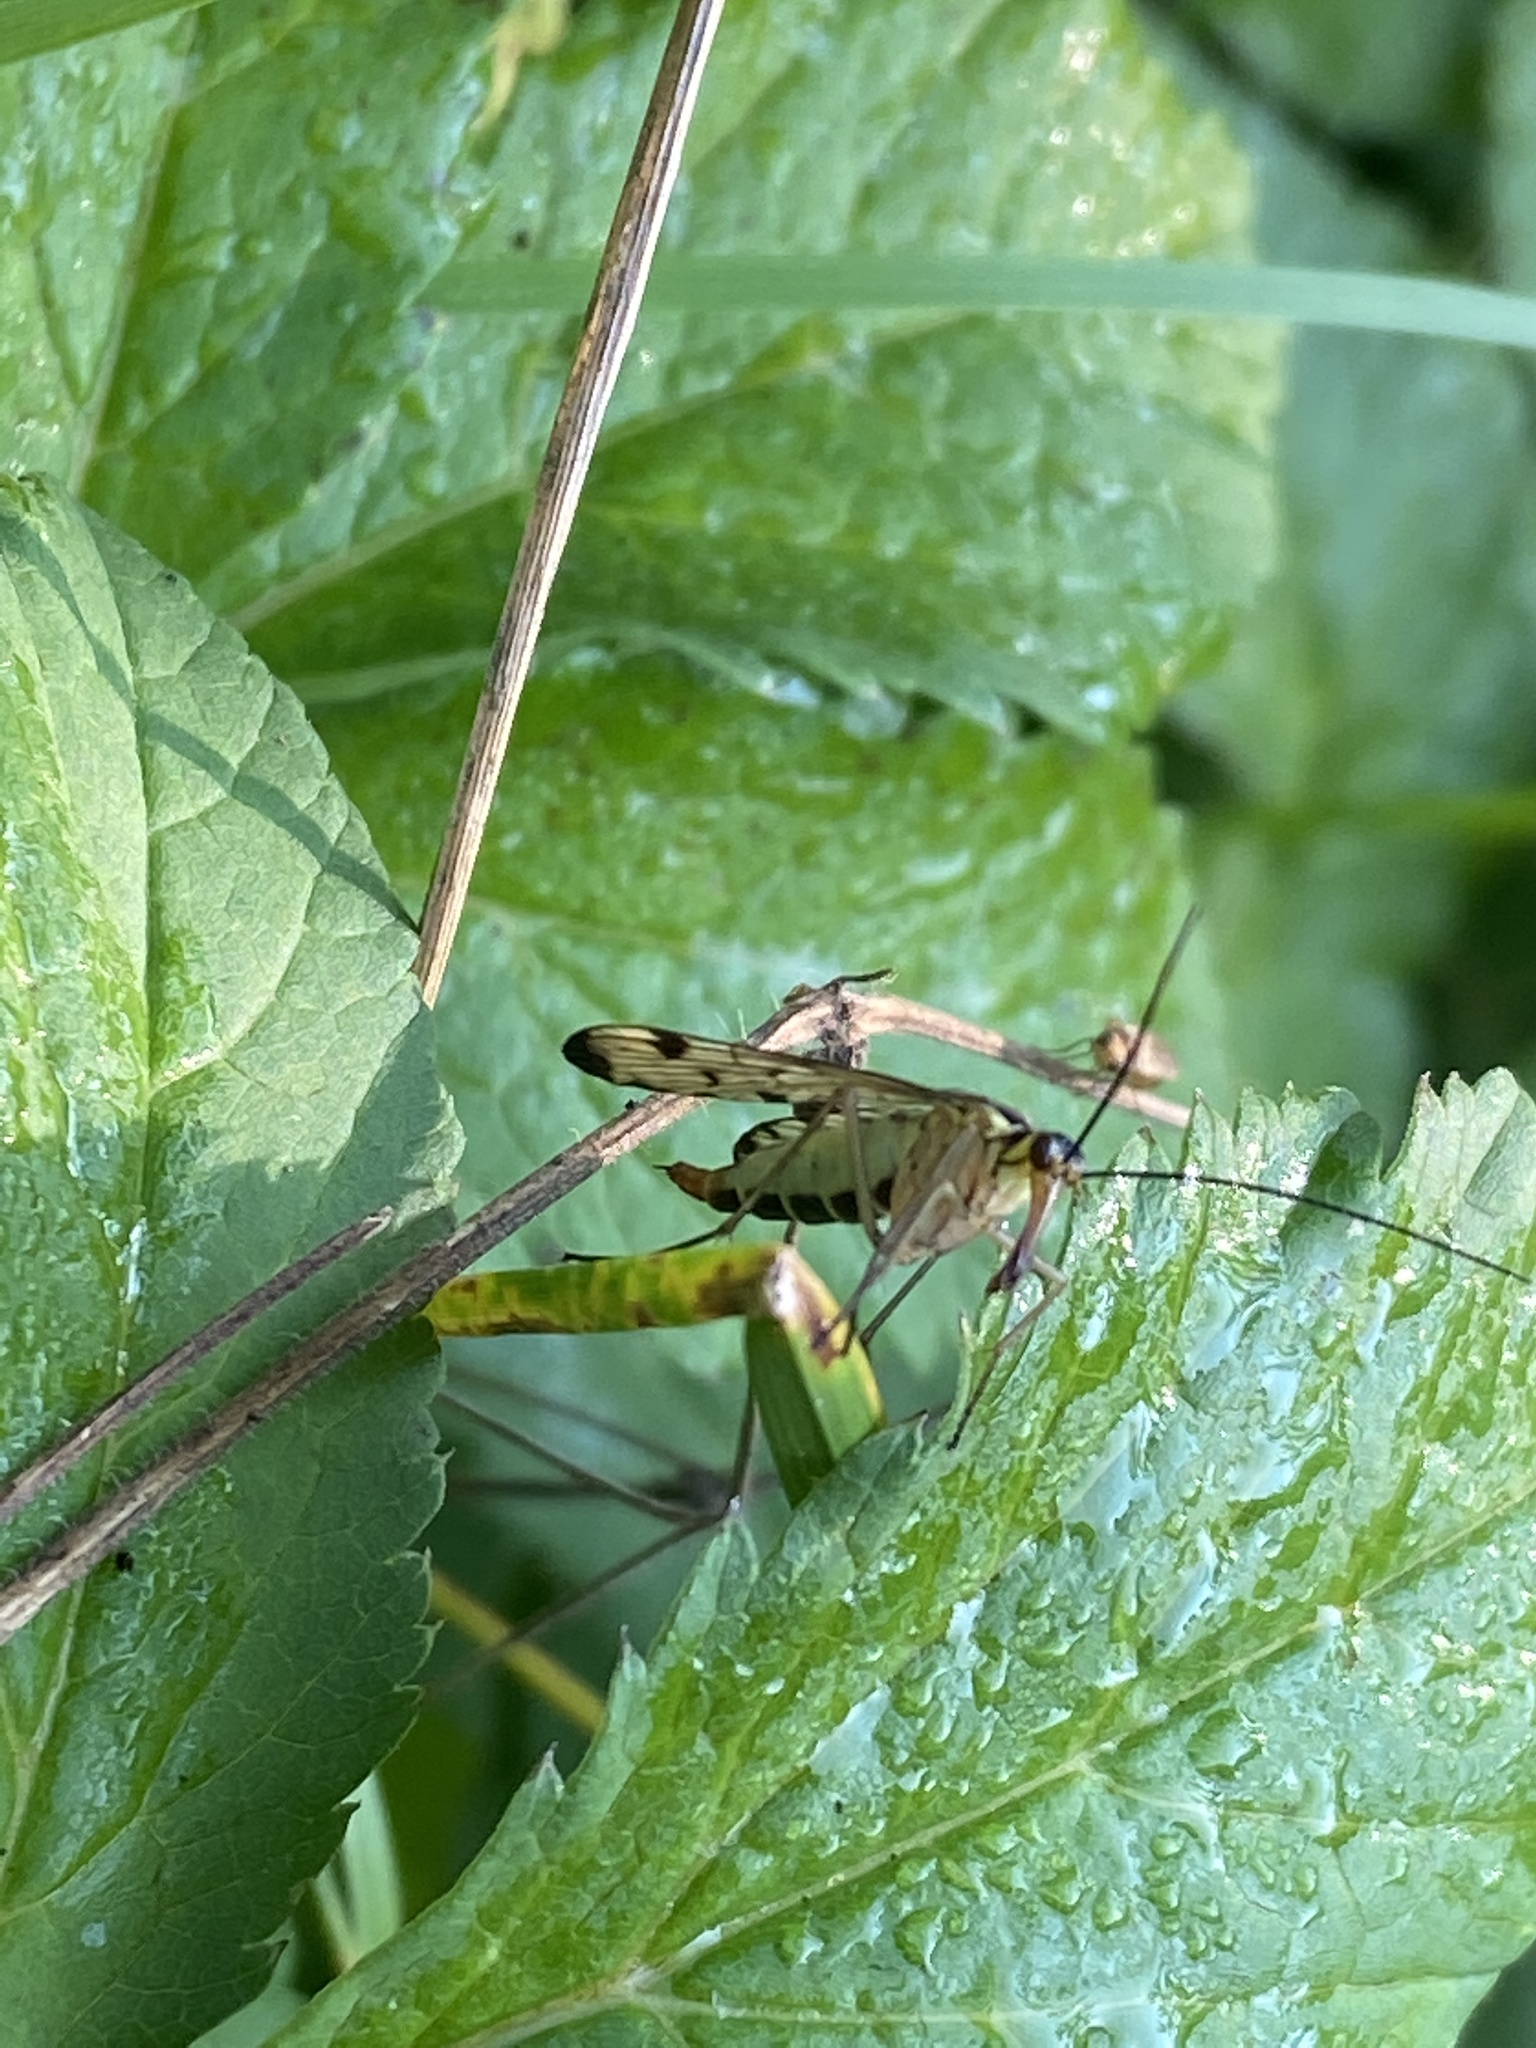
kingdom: Animalia
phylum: Arthropoda
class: Insecta
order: Mecoptera
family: Panorpidae
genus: Panorpa
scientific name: Panorpa germanica
